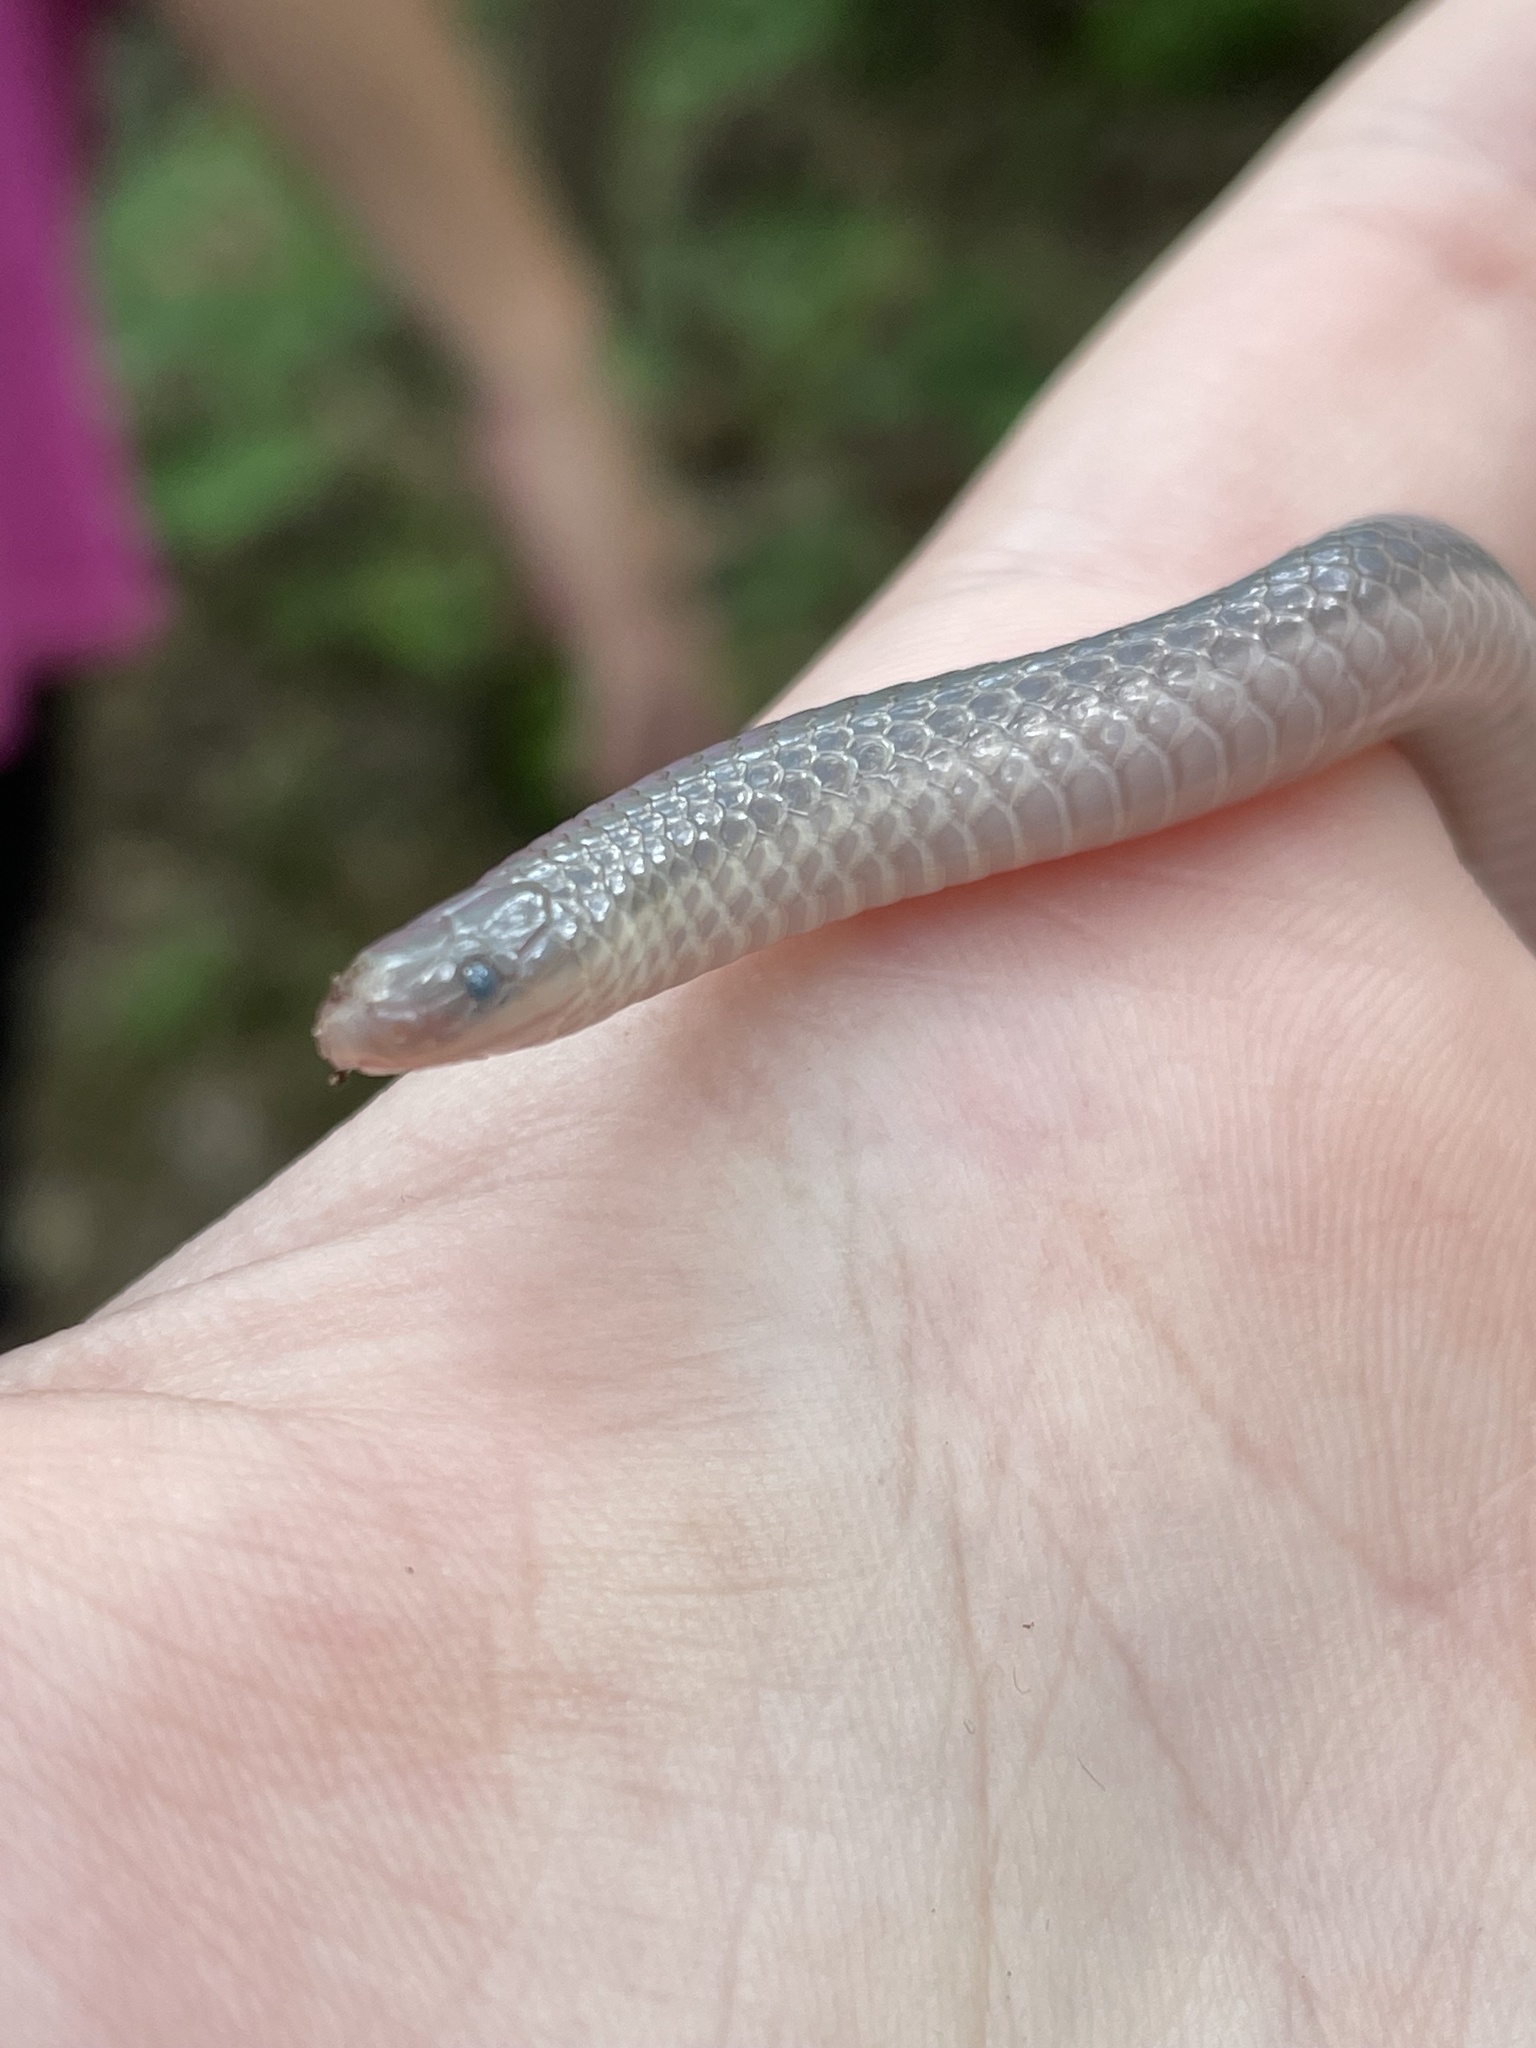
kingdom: Animalia
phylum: Chordata
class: Squamata
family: Colubridae
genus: Carphophis
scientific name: Carphophis amoenus
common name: Eastern worm snake
